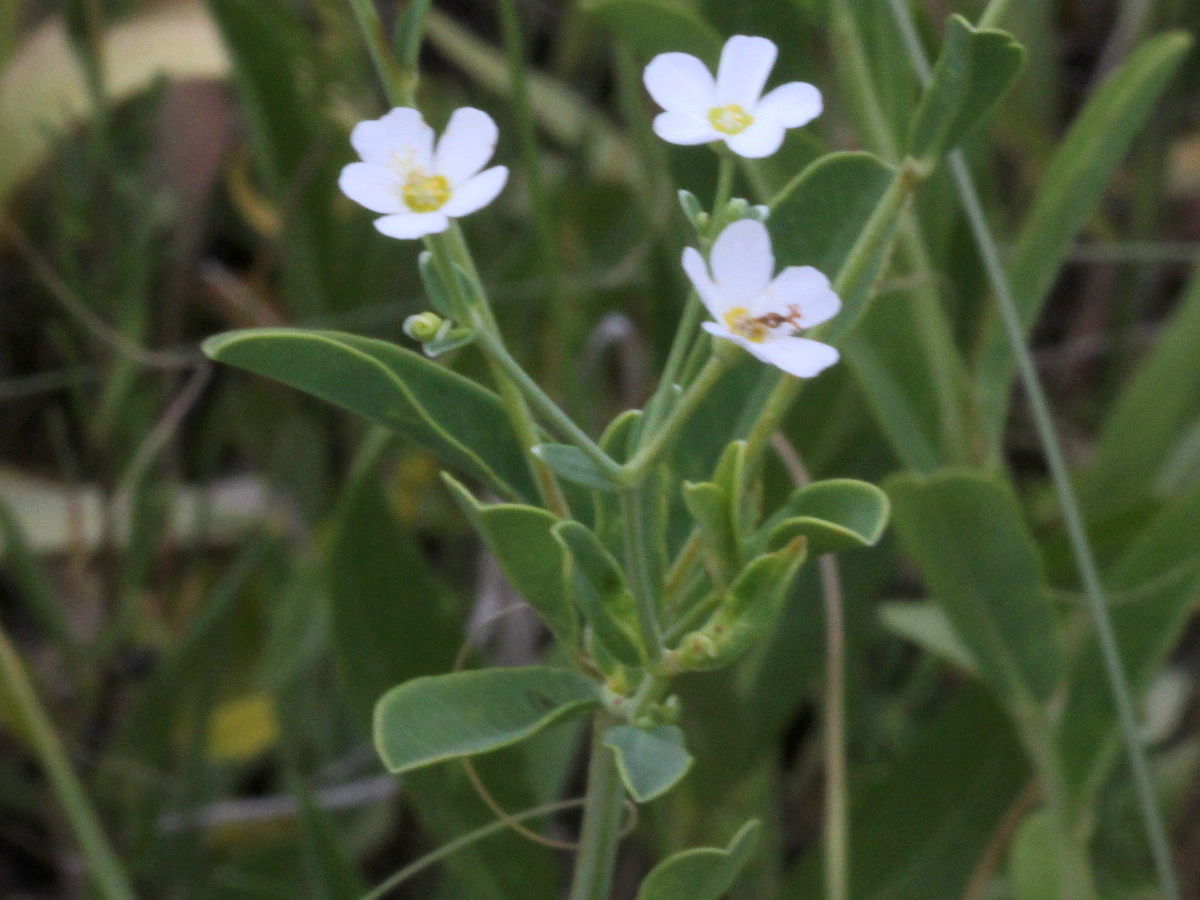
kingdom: Plantae
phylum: Tracheophyta
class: Magnoliopsida
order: Malpighiales
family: Euphorbiaceae
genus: Euphorbia
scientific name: Euphorbia corollata
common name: Flowering spurge
